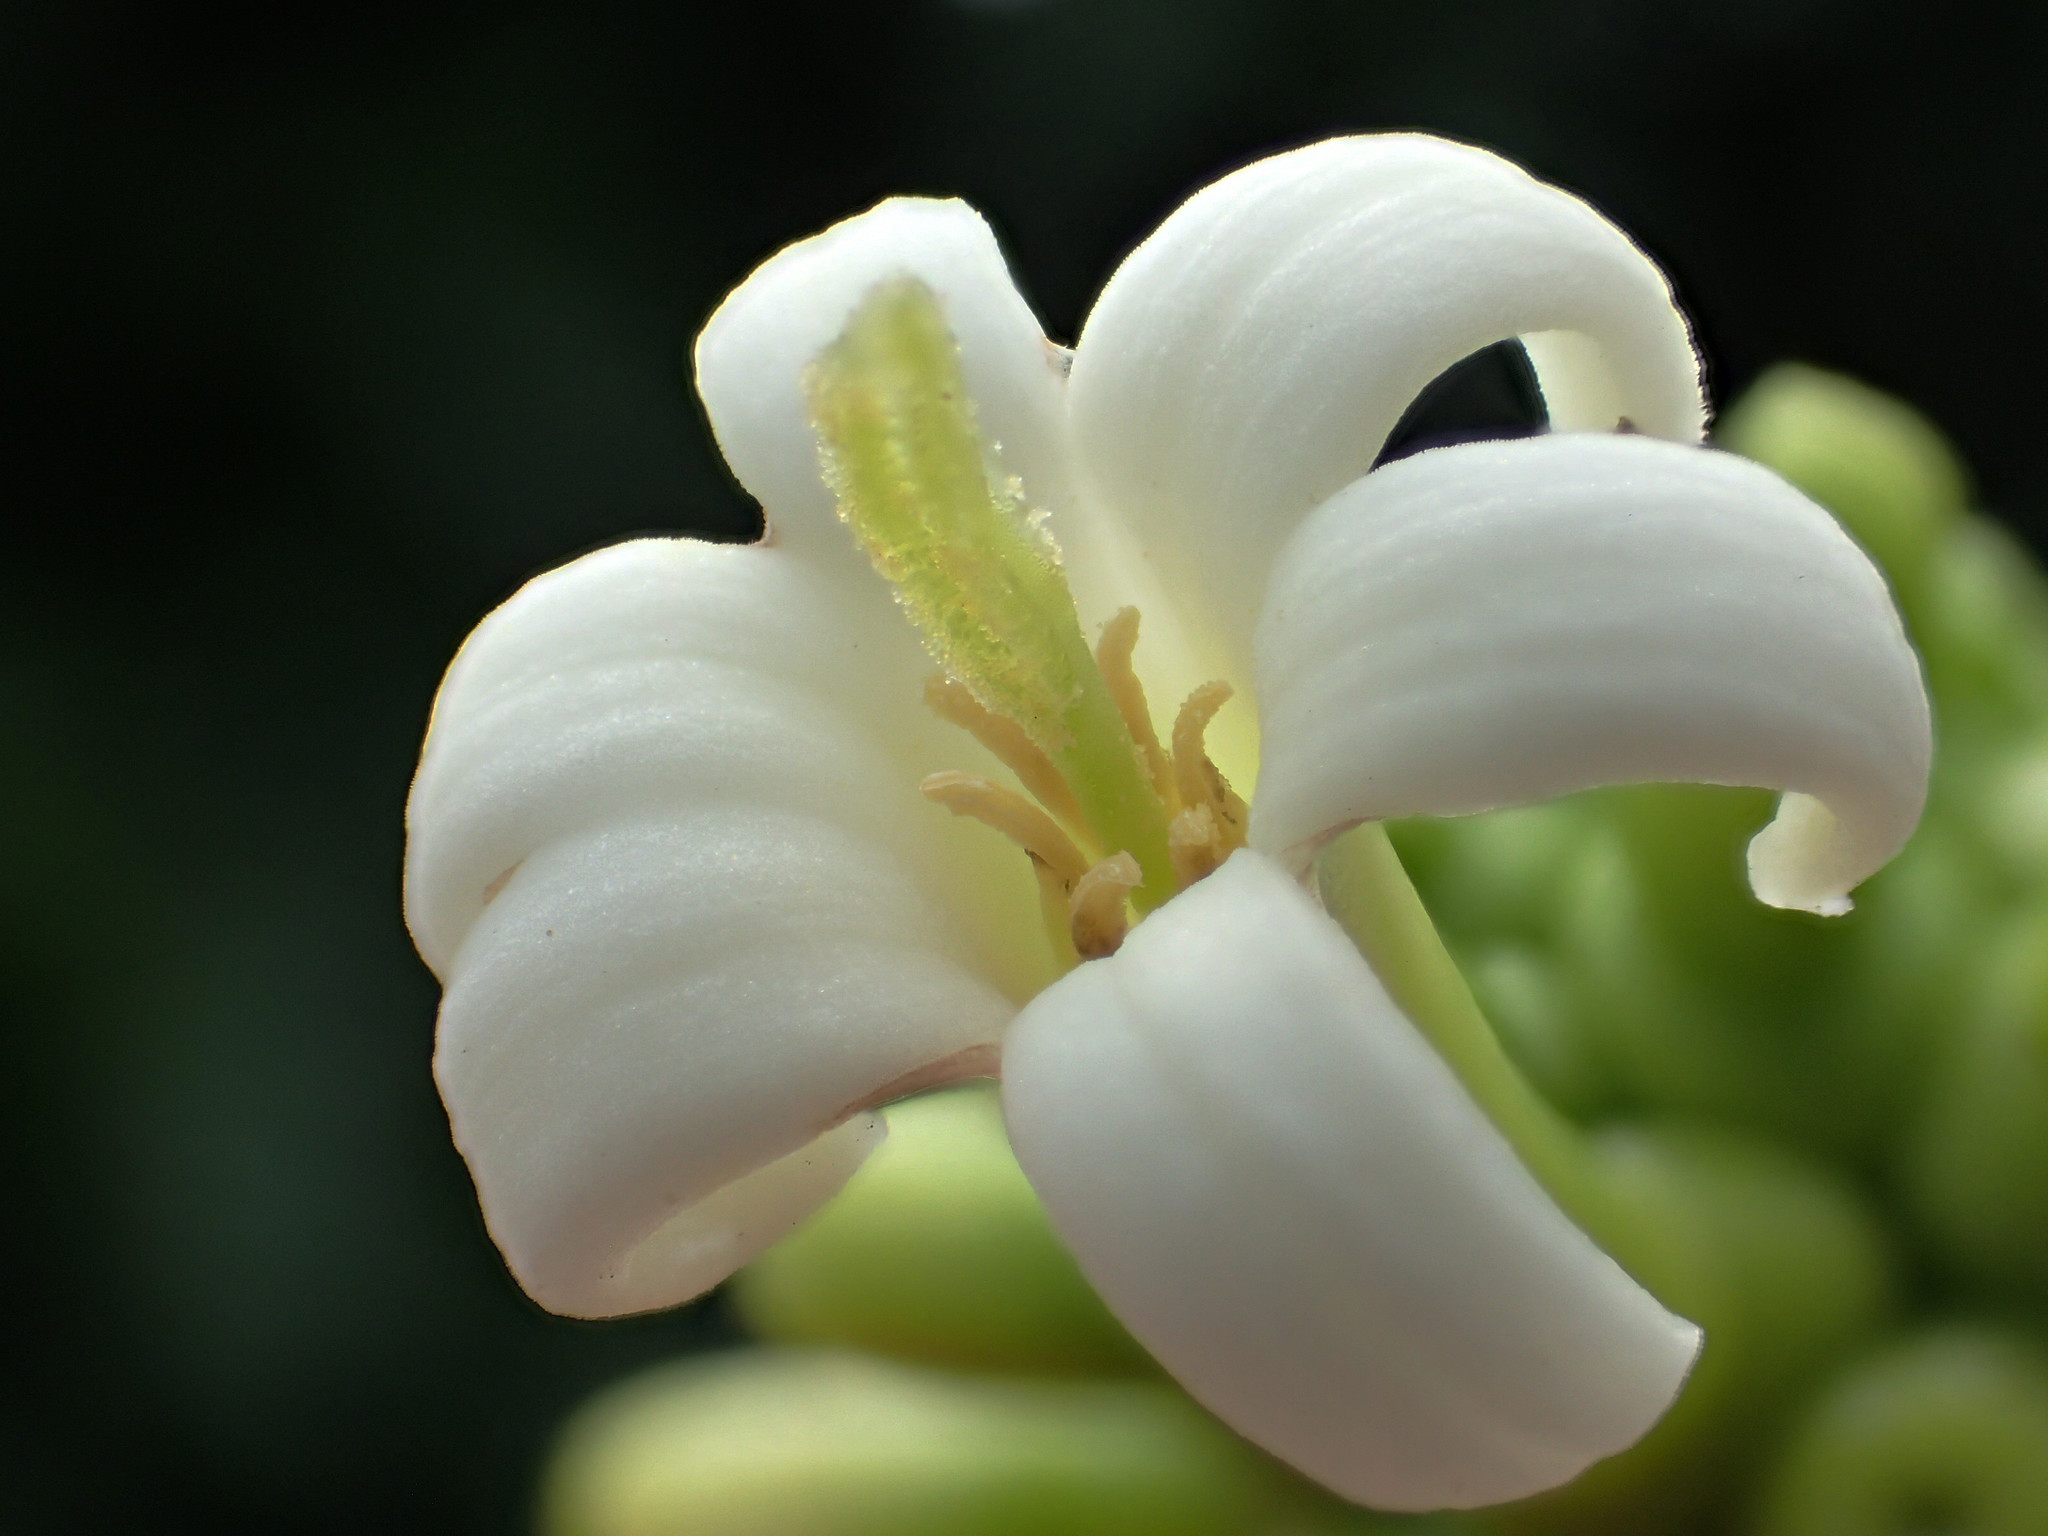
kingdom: Plantae
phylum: Tracheophyta
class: Magnoliopsida
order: Gentianales
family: Rubiaceae
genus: Morinda
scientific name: Morinda citrifolia
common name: Indian-mulberry
